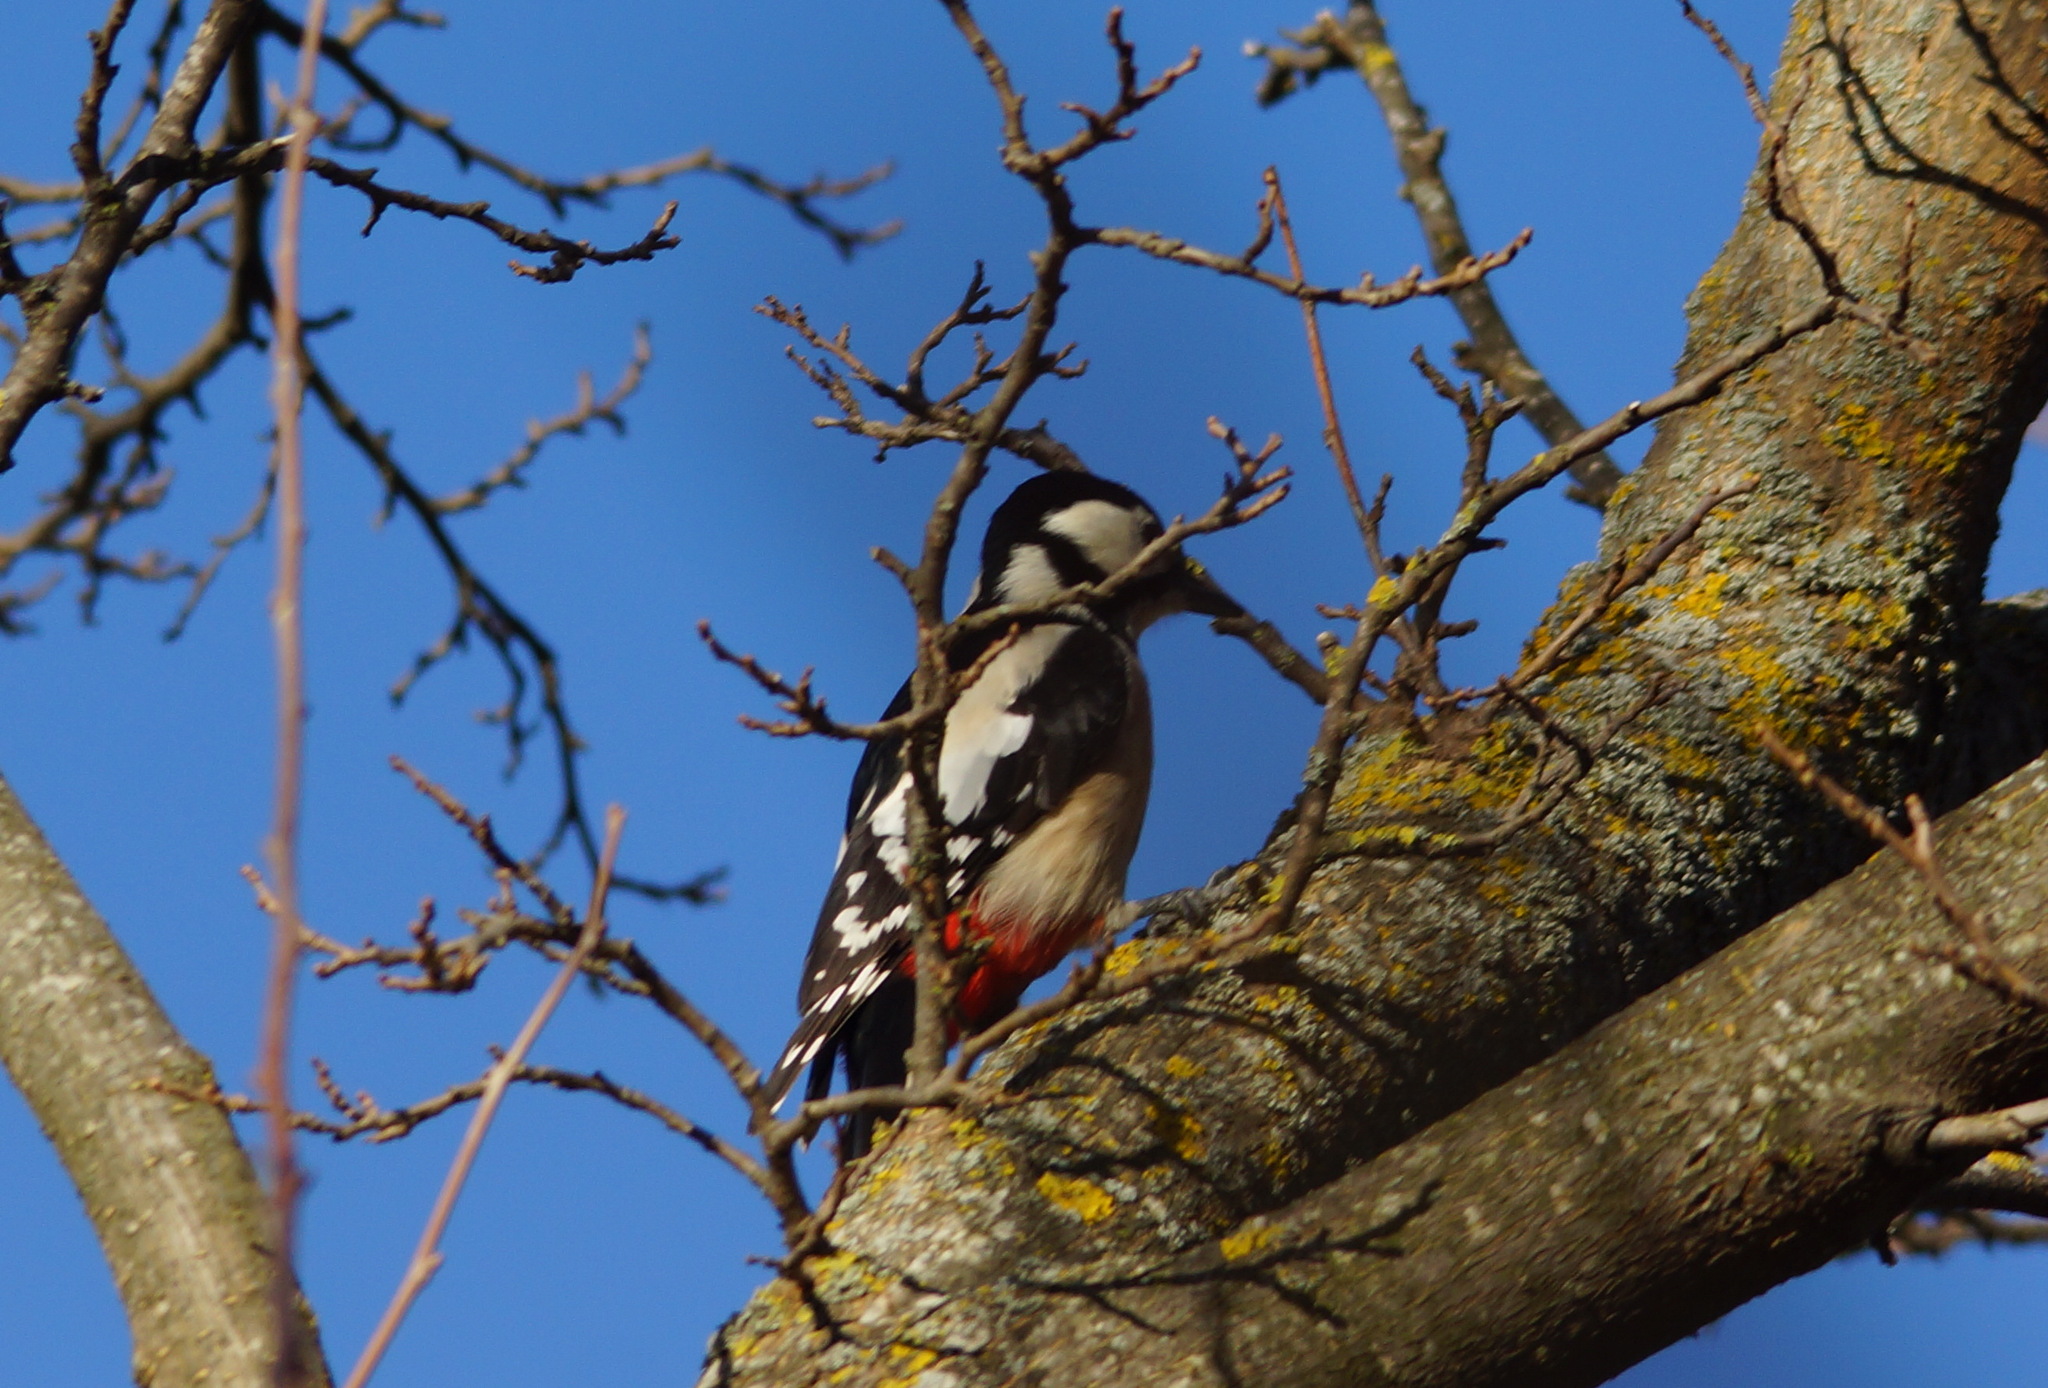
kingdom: Animalia
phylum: Chordata
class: Aves
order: Piciformes
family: Picidae
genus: Dendrocopos
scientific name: Dendrocopos major
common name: Great spotted woodpecker
